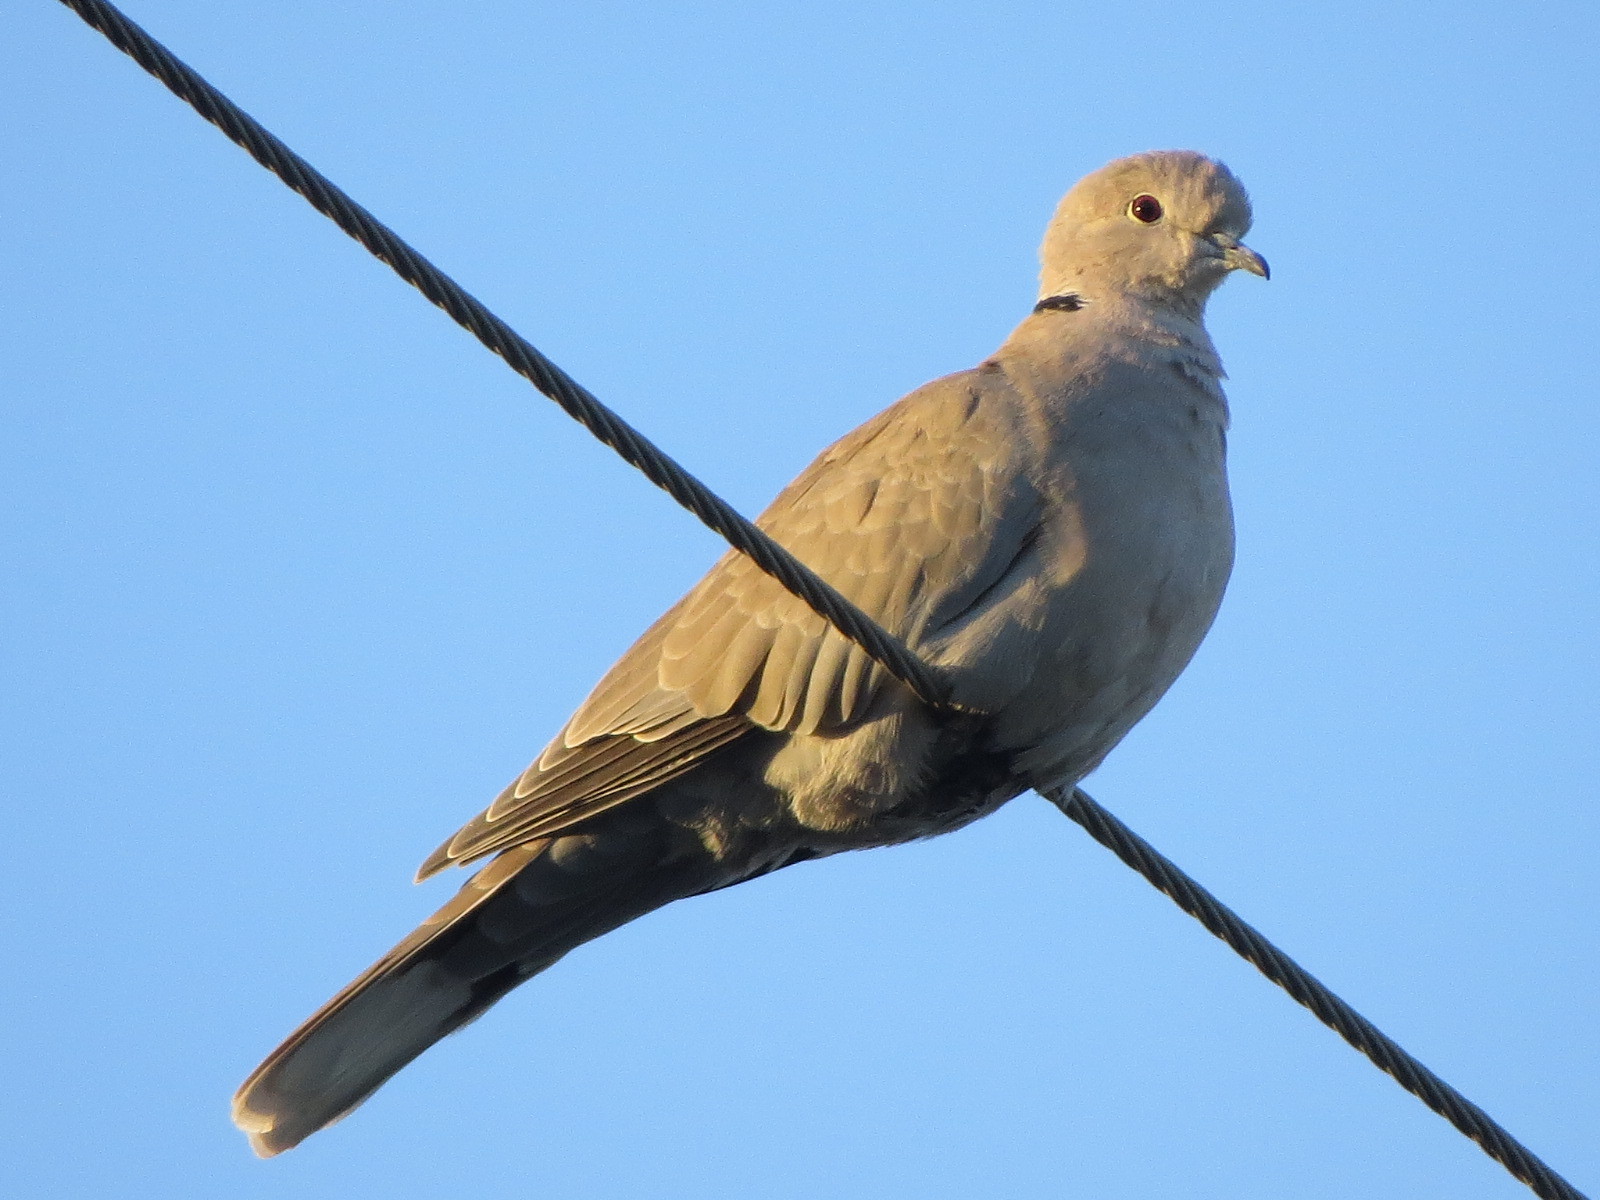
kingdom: Animalia
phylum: Chordata
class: Aves
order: Columbiformes
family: Columbidae
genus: Streptopelia
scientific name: Streptopelia decaocto
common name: Eurasian collared dove
